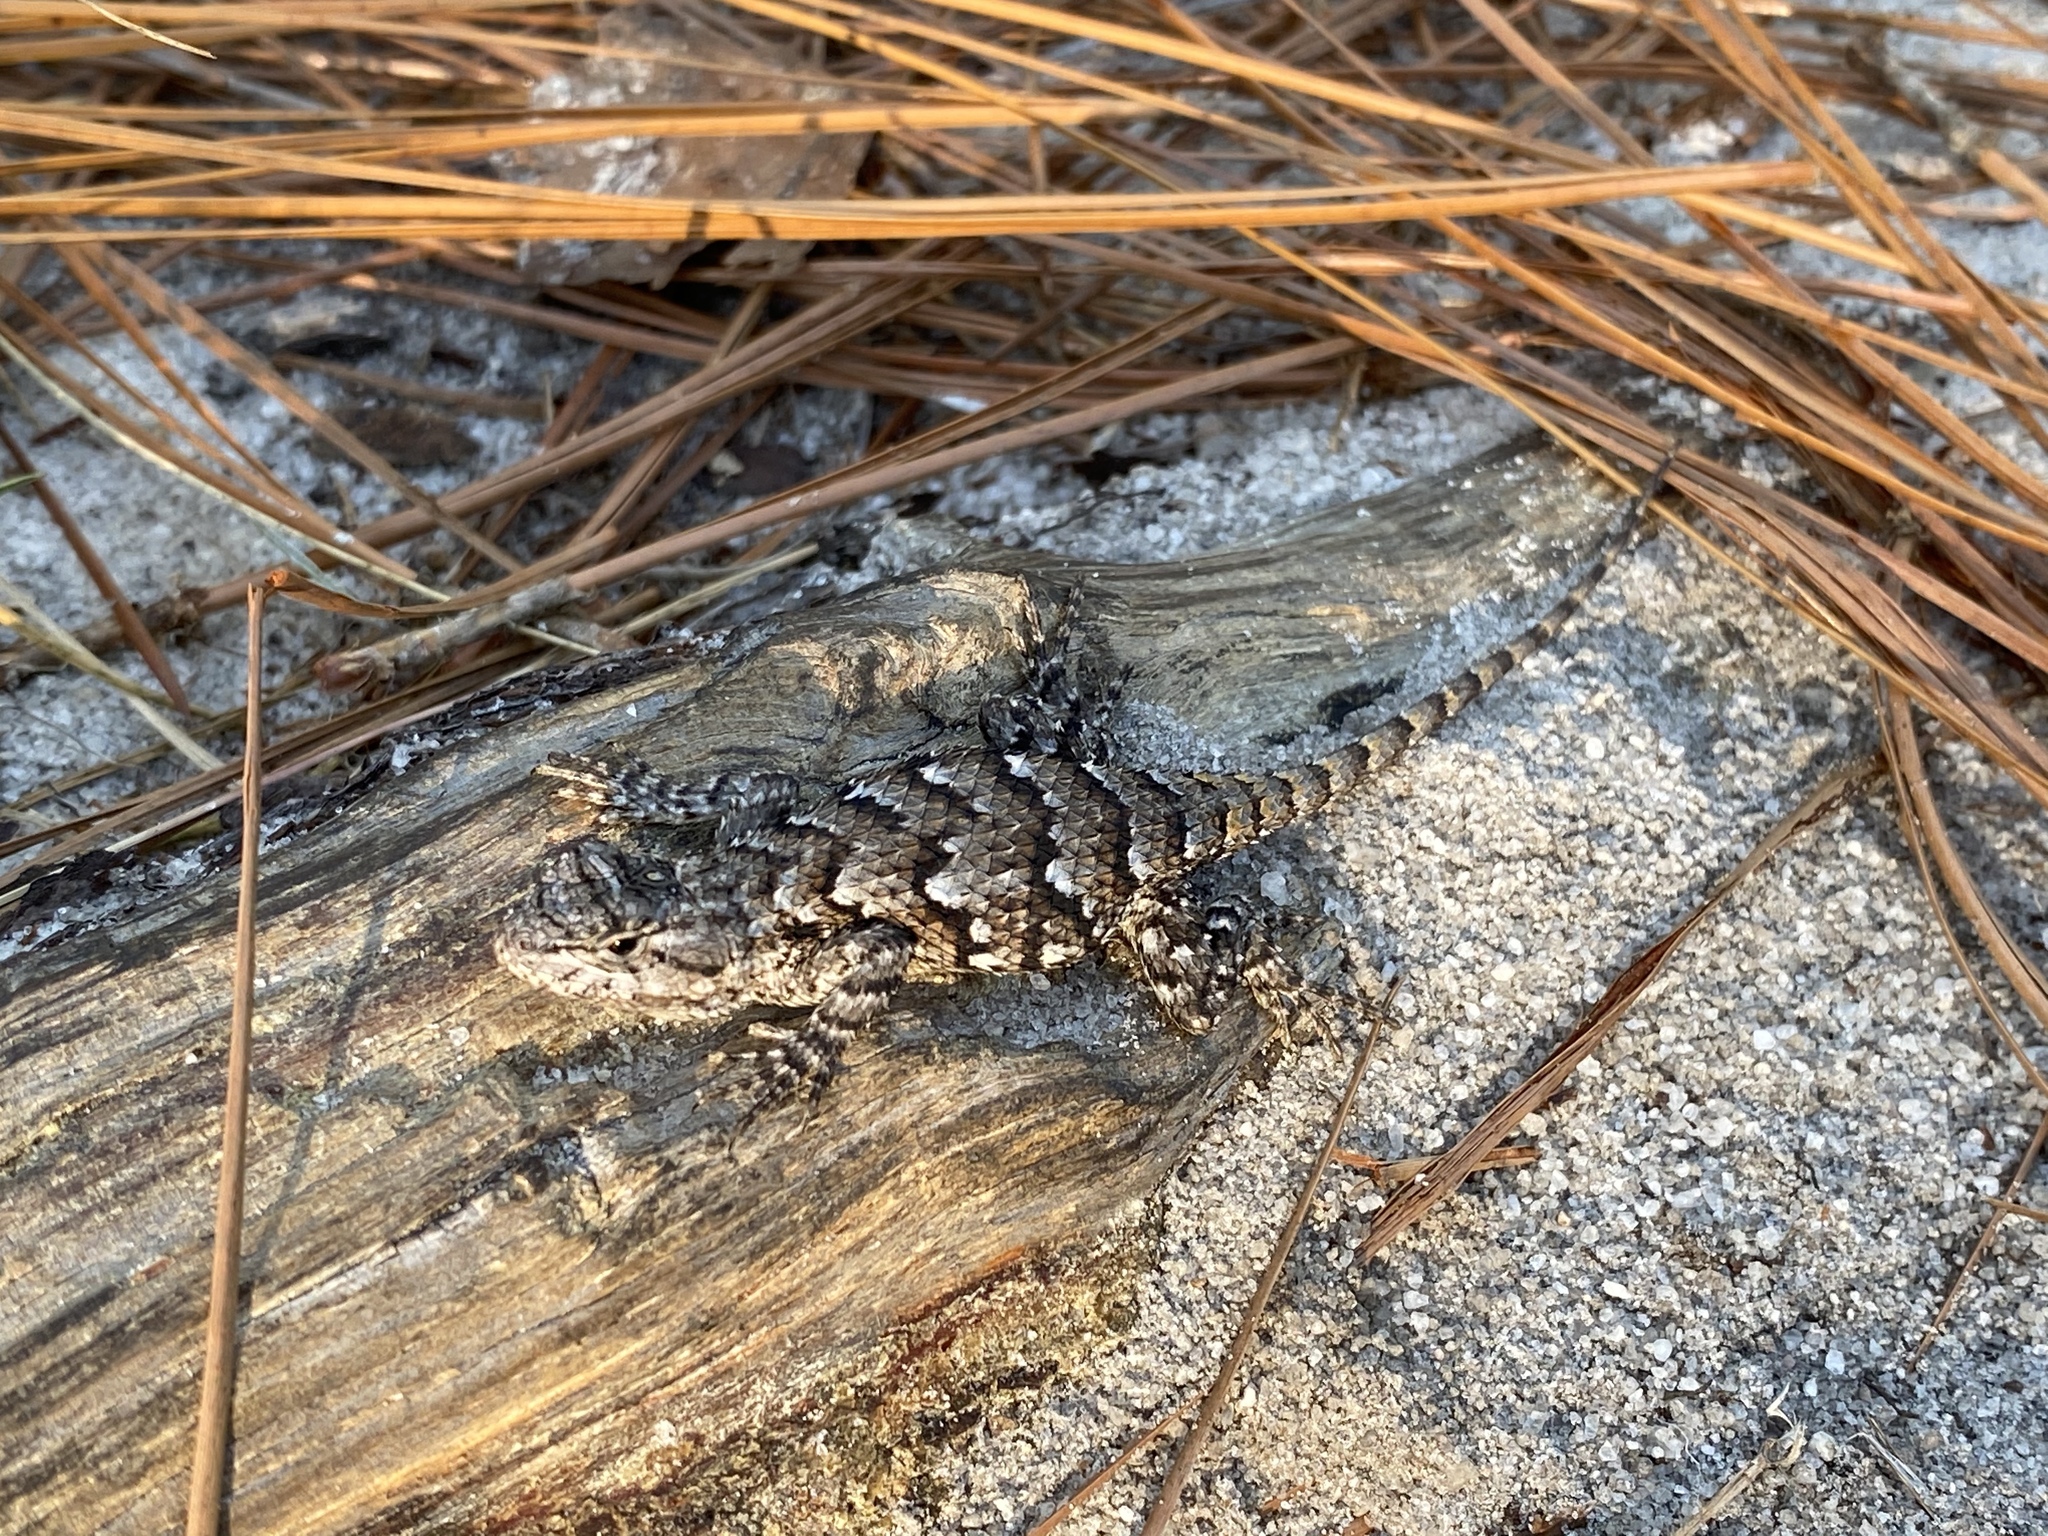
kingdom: Animalia
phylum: Chordata
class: Squamata
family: Phrynosomatidae
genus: Sceloporus
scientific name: Sceloporus undulatus
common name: Eastern fence lizard
